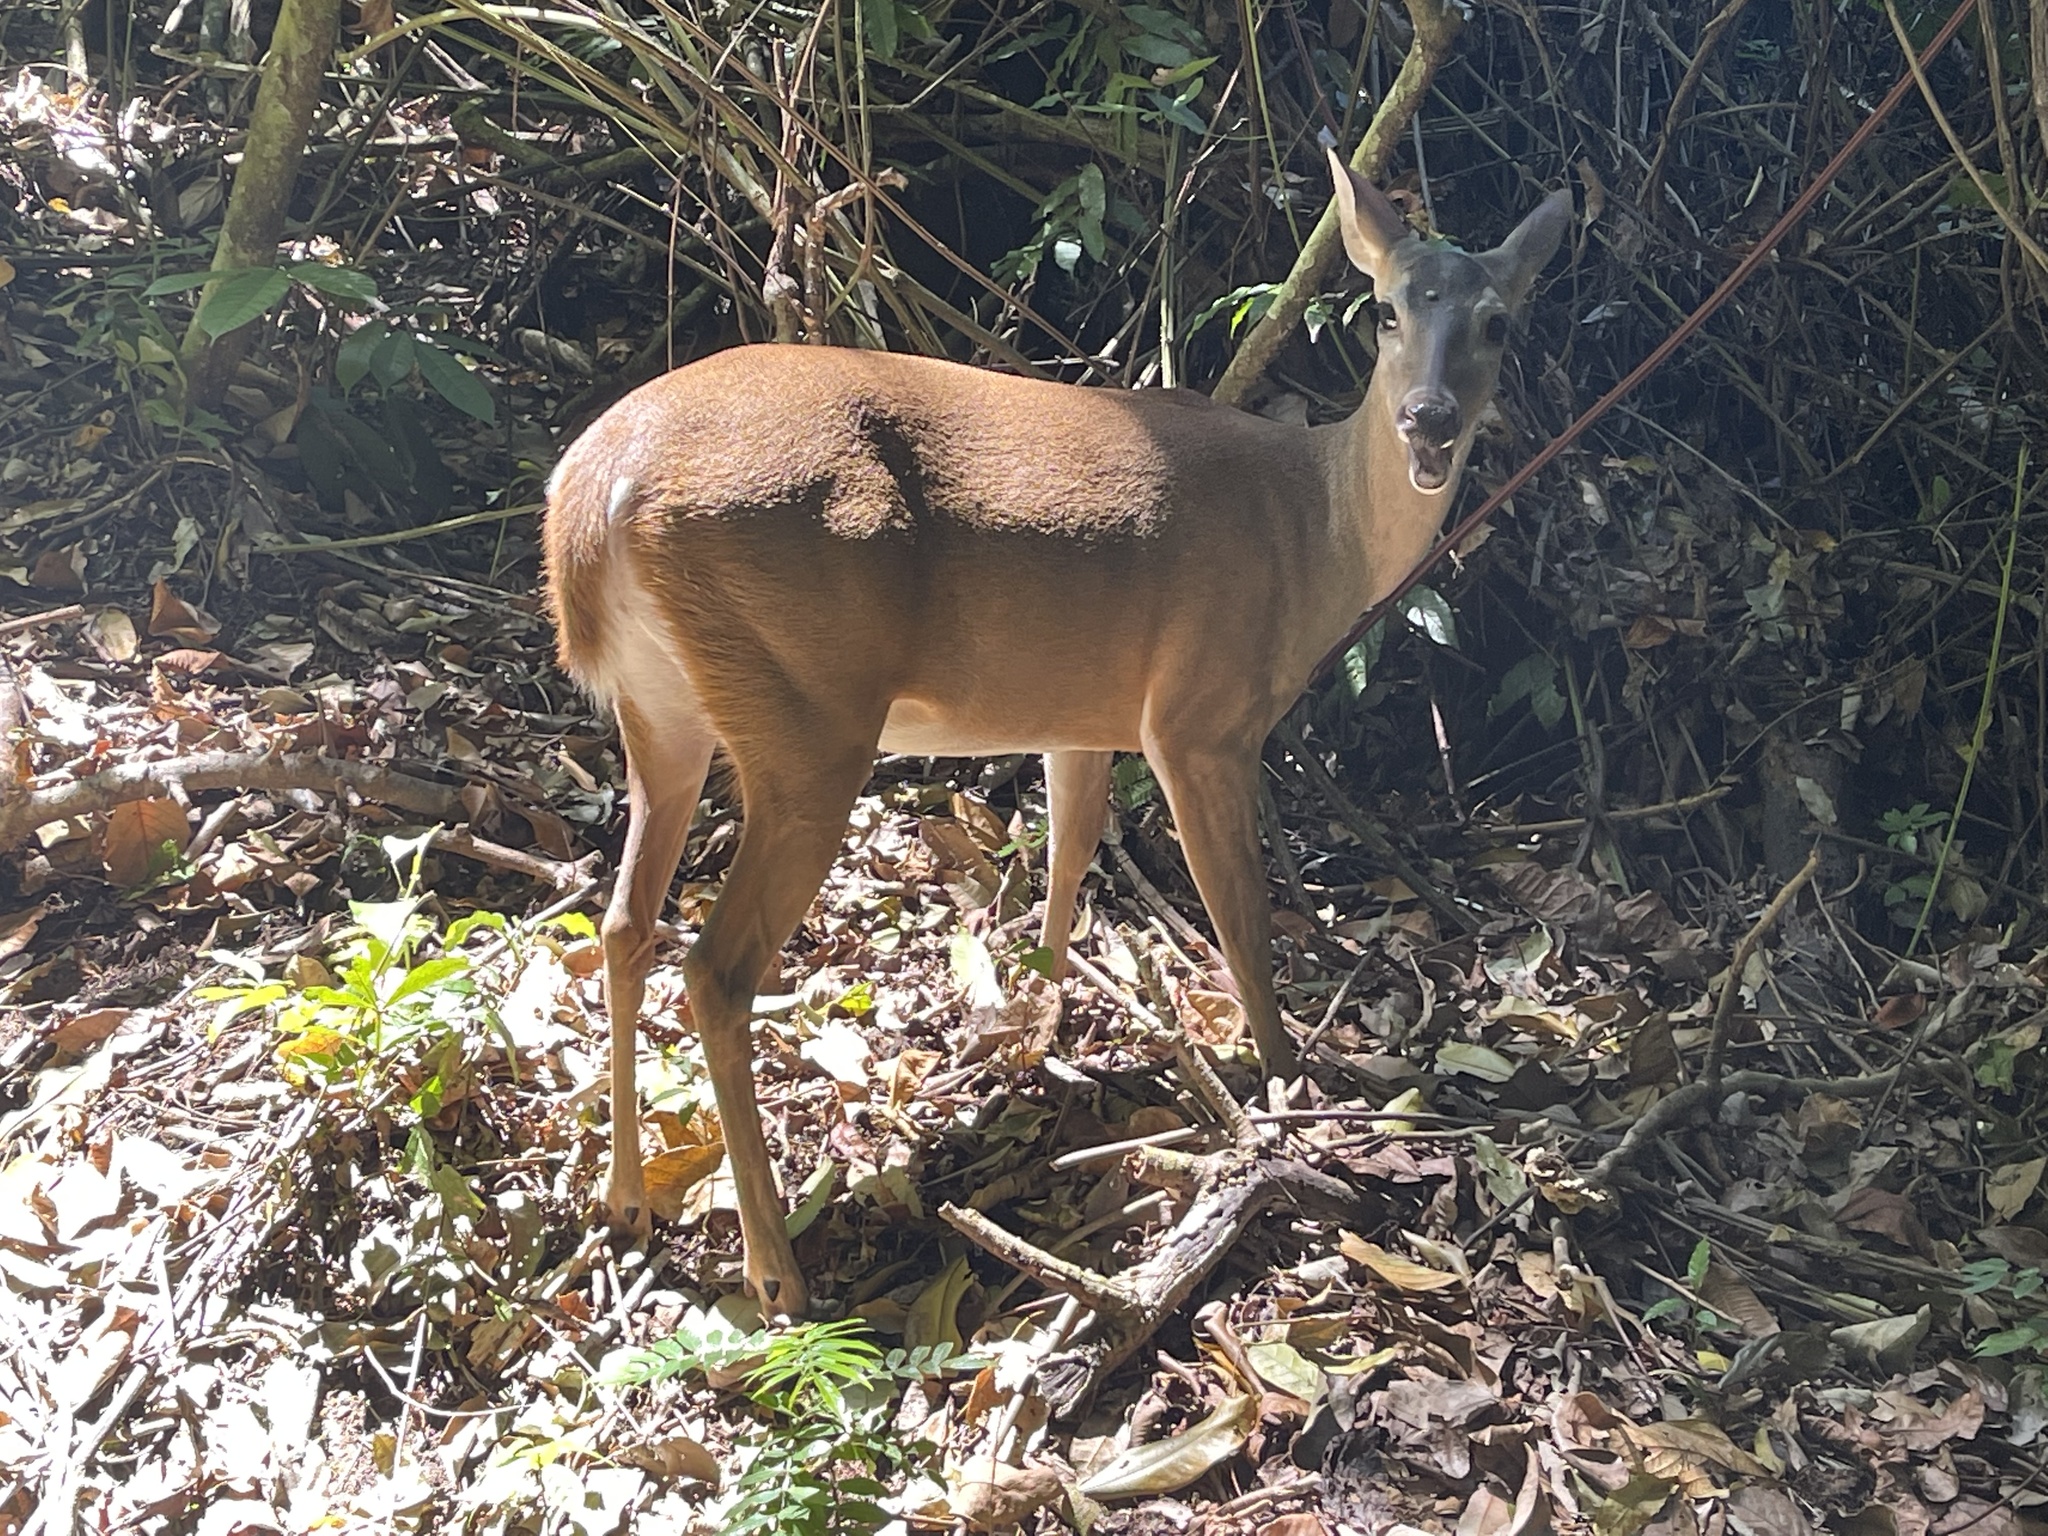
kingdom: Animalia
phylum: Chordata
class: Mammalia
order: Artiodactyla
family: Cervidae
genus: Odocoileus
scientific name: Odocoileus virginianus
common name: White-tailed deer
